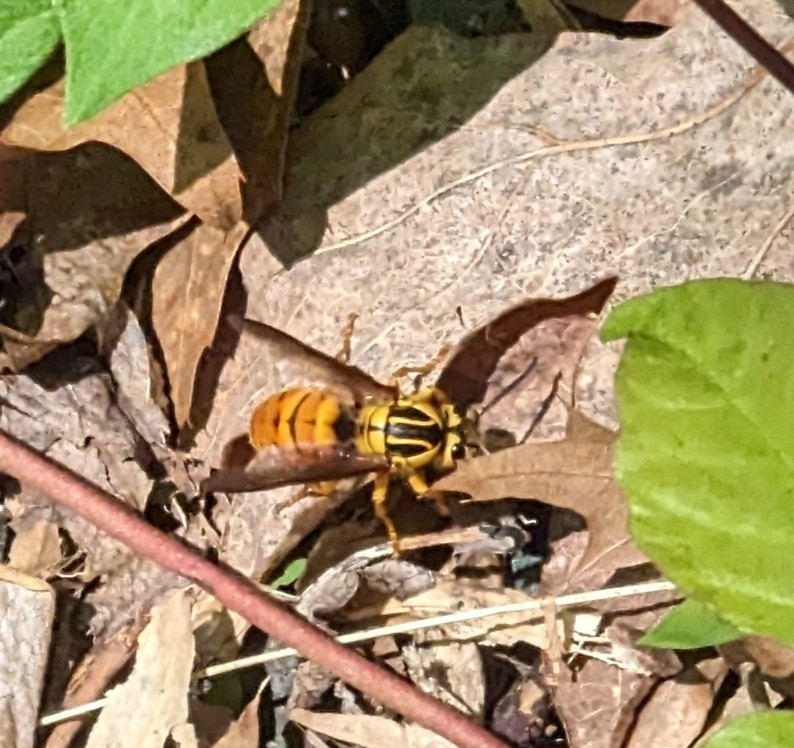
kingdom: Animalia
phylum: Arthropoda
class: Insecta
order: Hymenoptera
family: Vespidae
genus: Vespula
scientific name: Vespula squamosa
